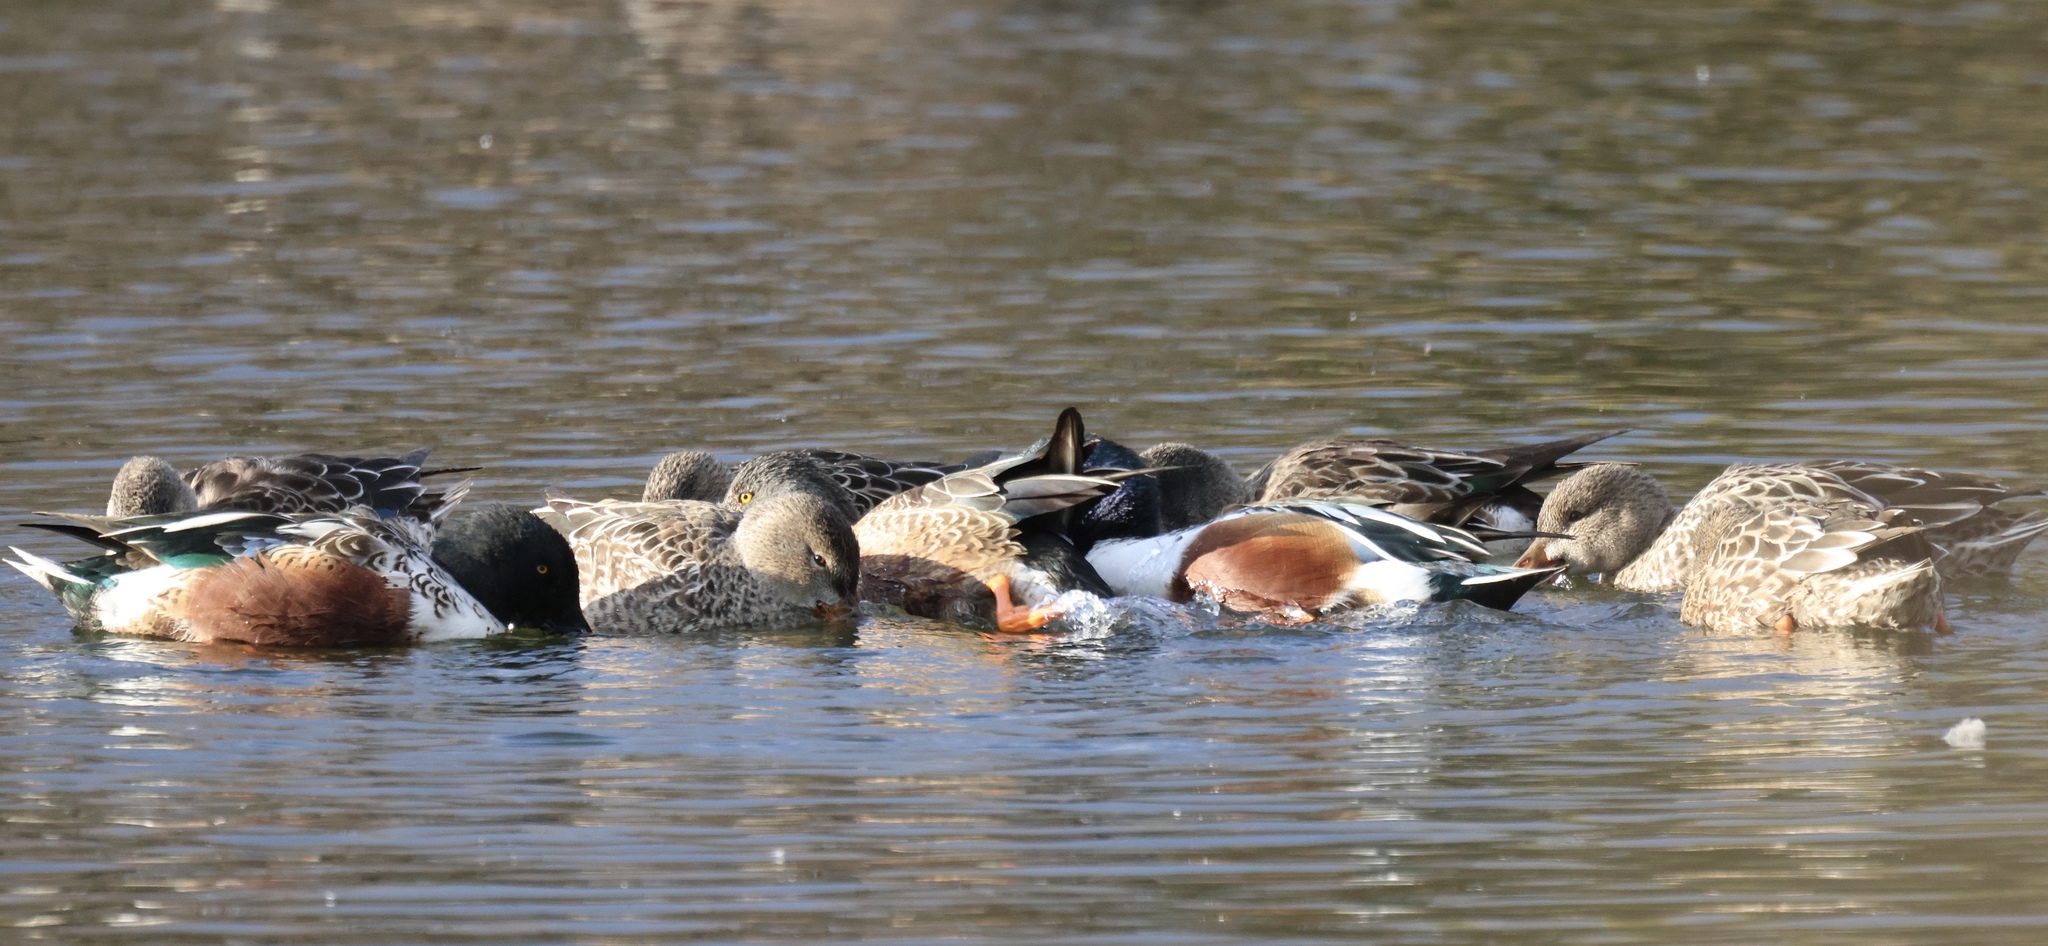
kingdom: Animalia
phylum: Chordata
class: Aves
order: Anseriformes
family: Anatidae
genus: Spatula
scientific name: Spatula clypeata
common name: Northern shoveler
